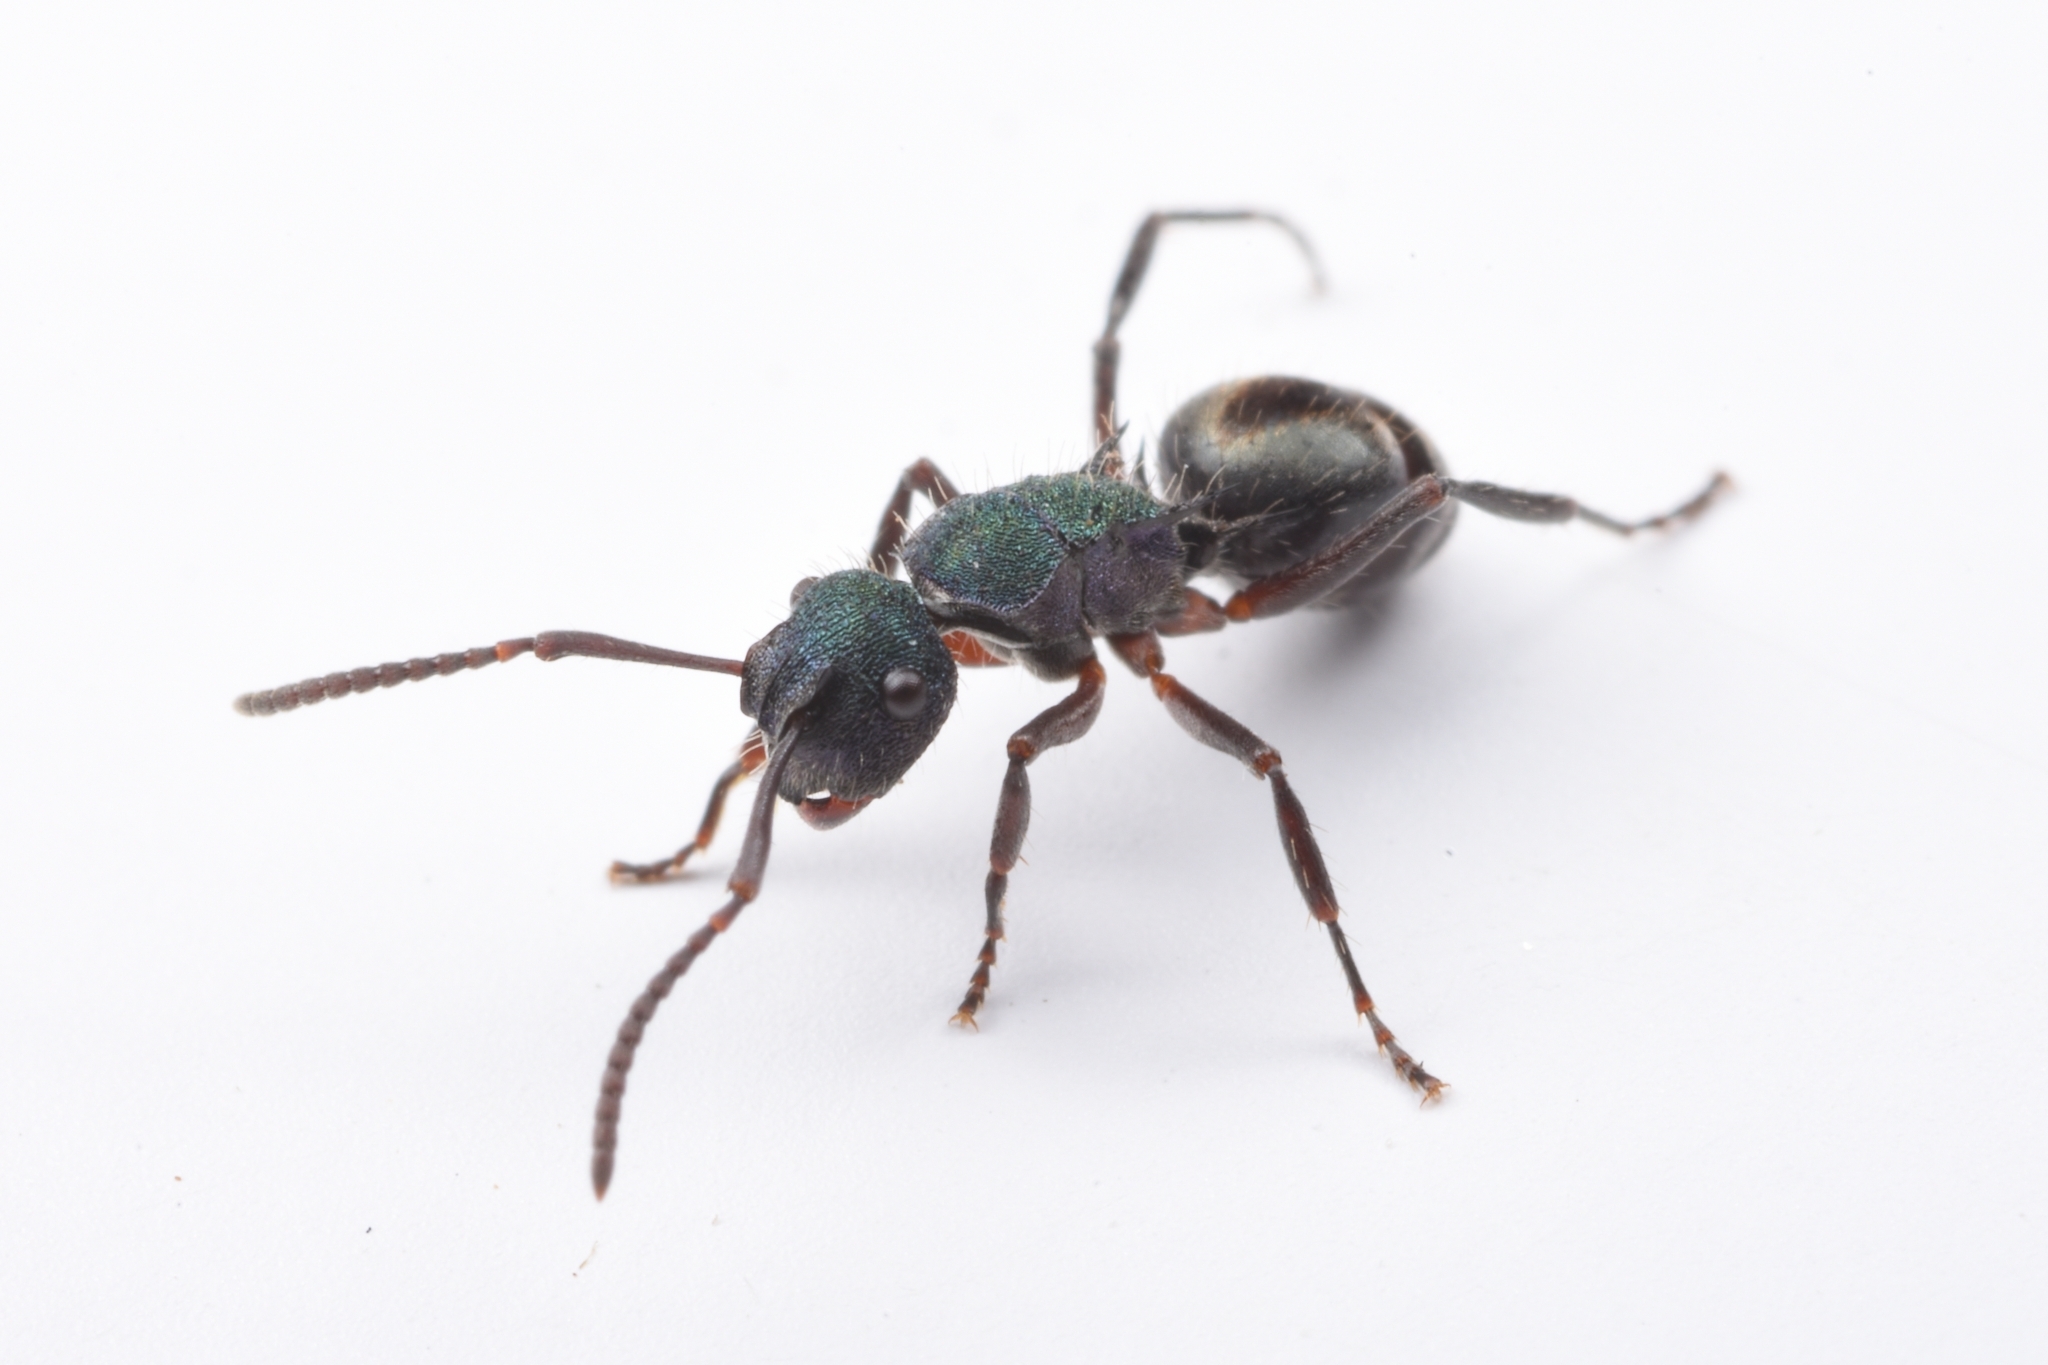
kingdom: Animalia
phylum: Arthropoda
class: Insecta
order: Hymenoptera
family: Formicidae
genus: Polyrhachis
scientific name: Polyrhachis hookeri
